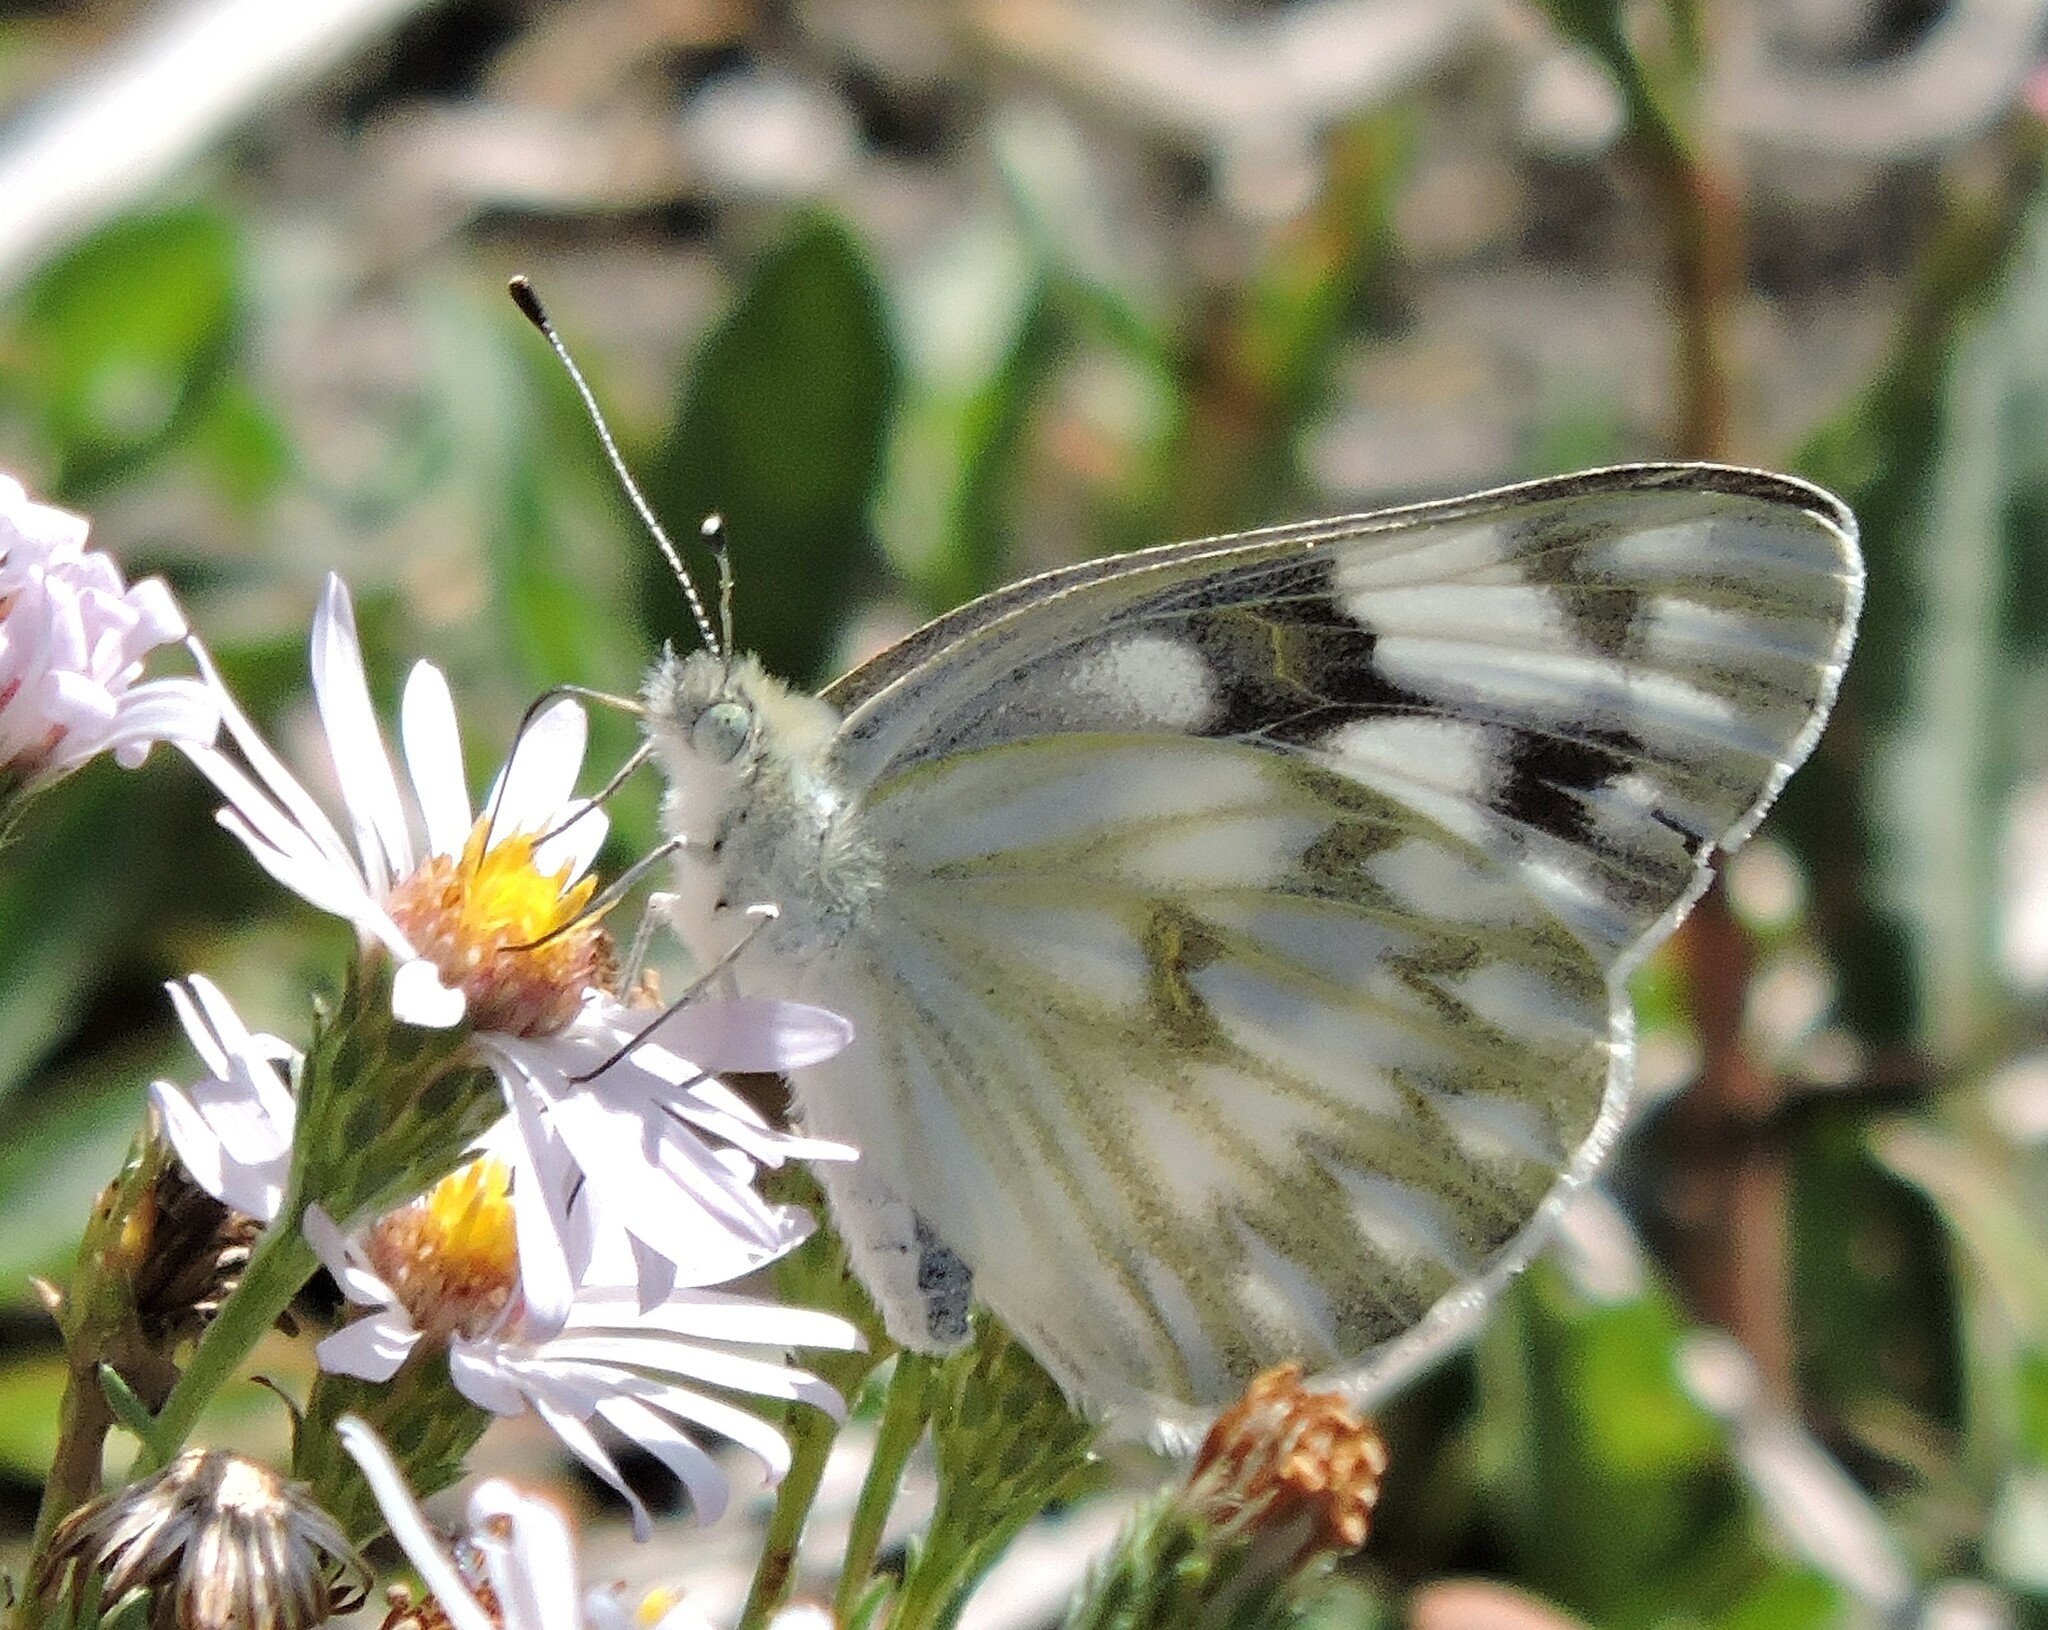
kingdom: Animalia
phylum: Arthropoda
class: Insecta
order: Lepidoptera
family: Pieridae
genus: Pontia
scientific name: Pontia protodice
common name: Checkered white
